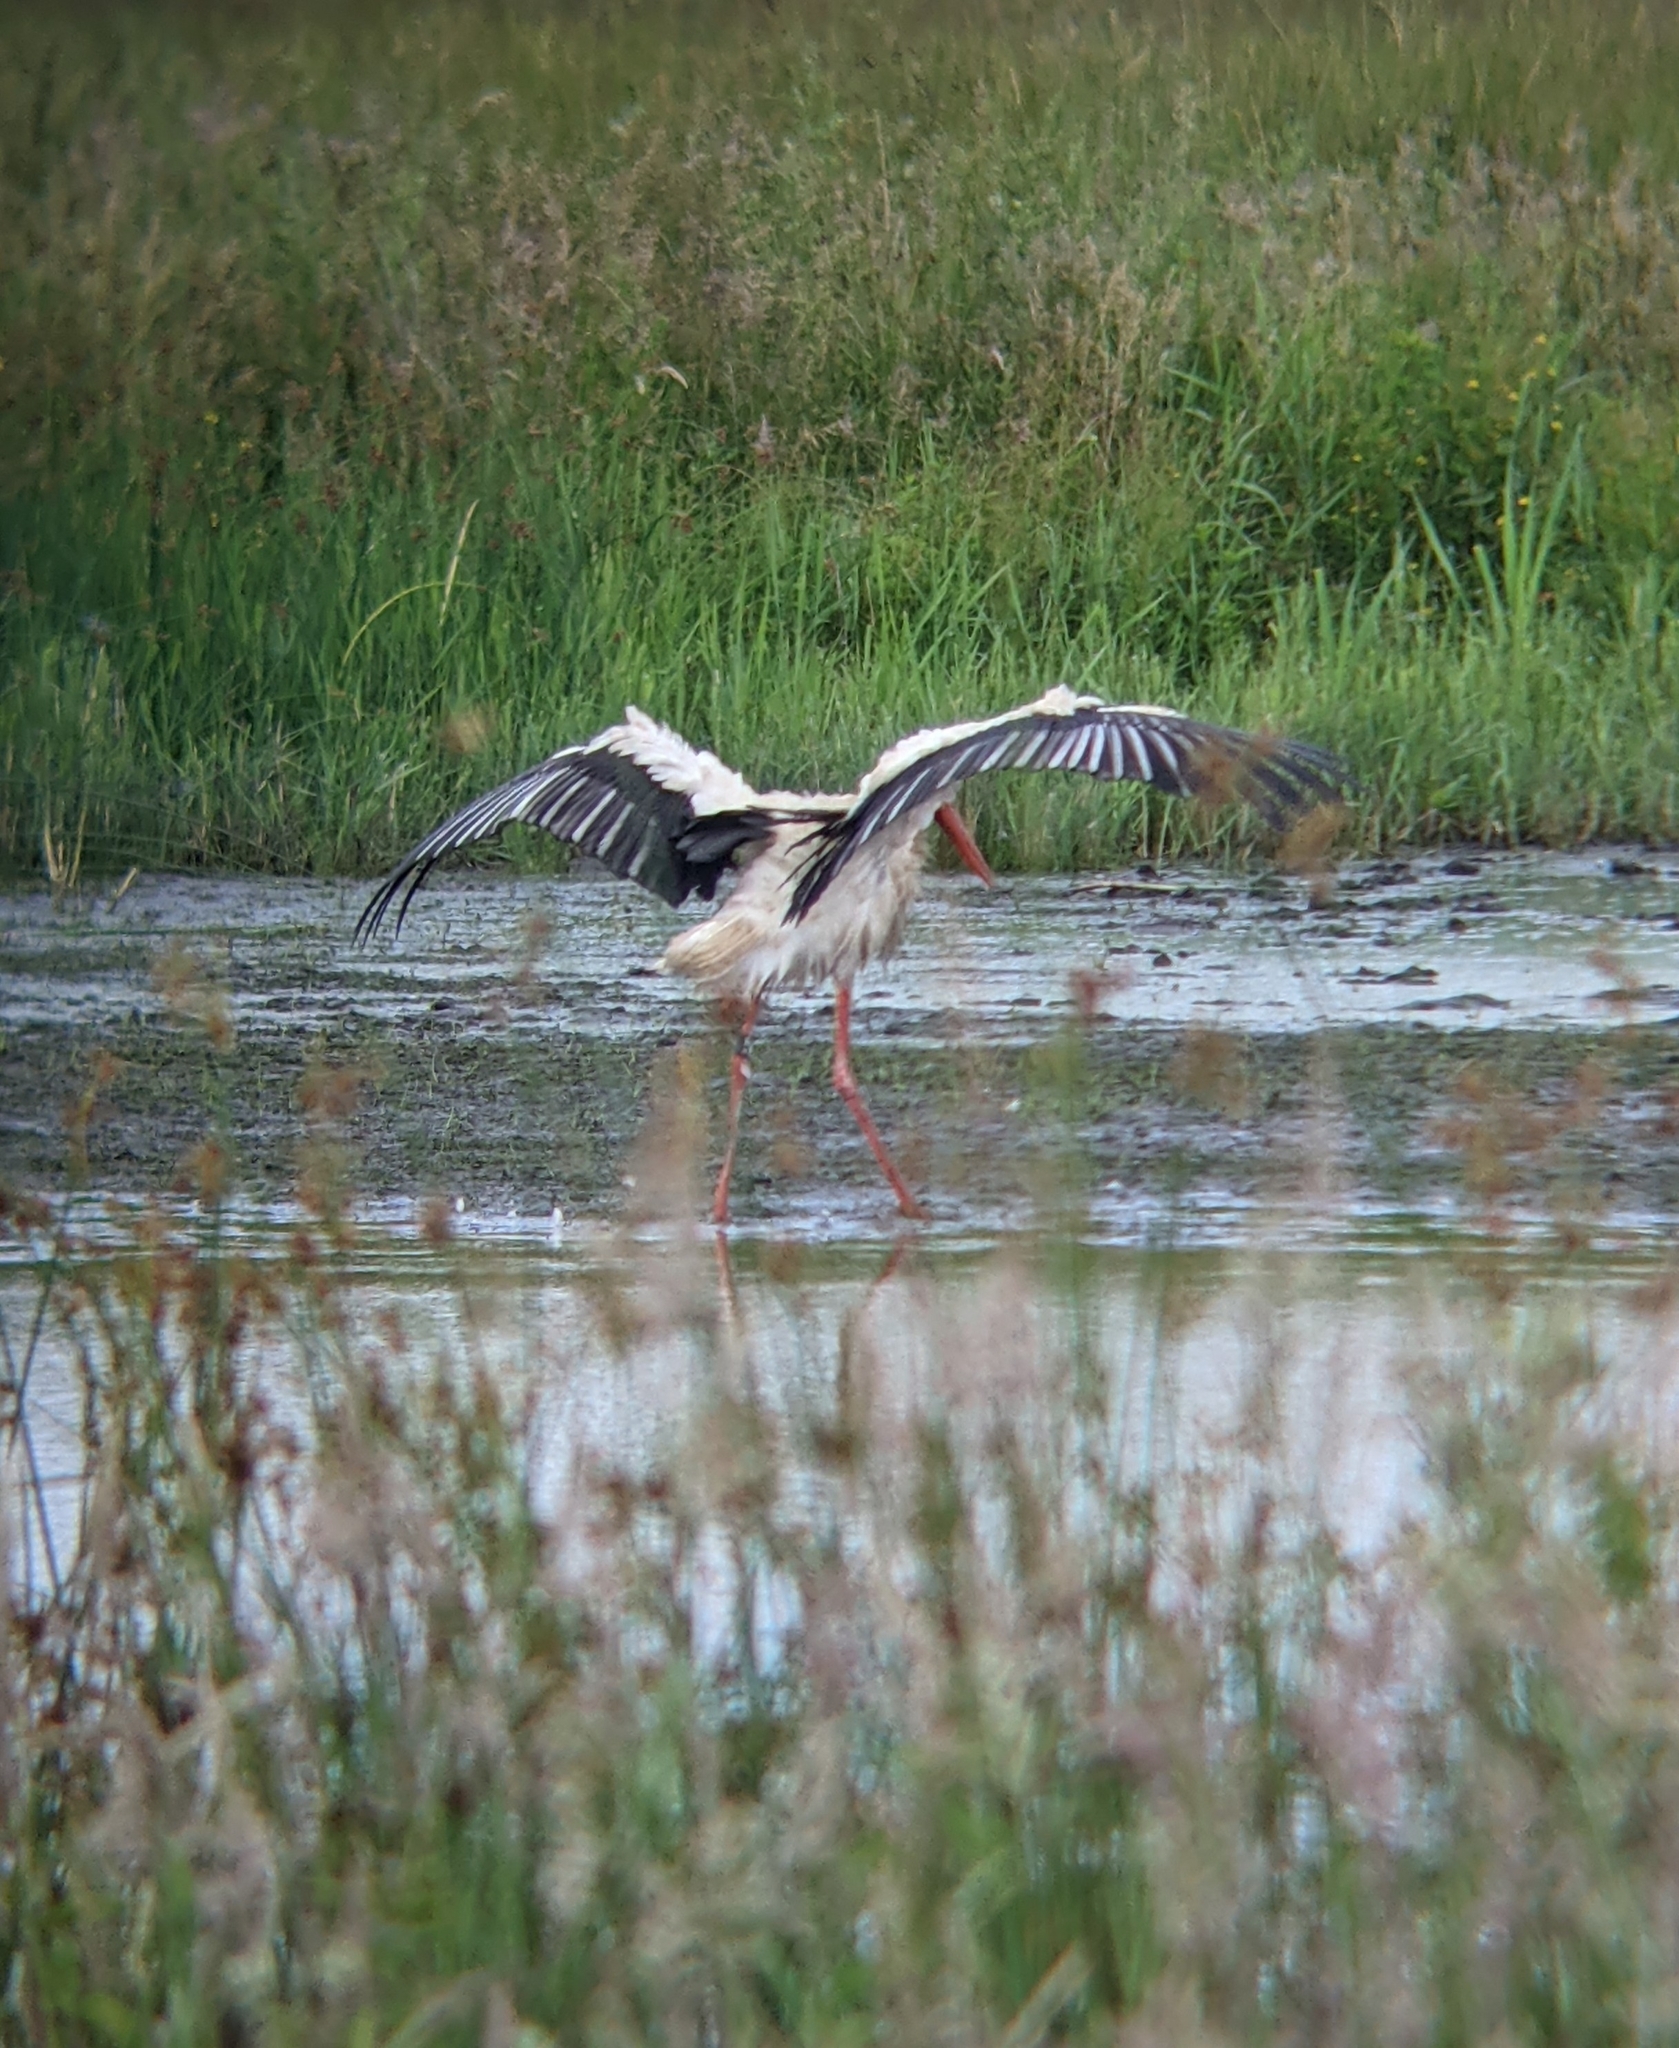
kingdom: Animalia
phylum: Chordata
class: Aves
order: Ciconiiformes
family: Ciconiidae
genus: Ciconia
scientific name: Ciconia ciconia
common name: White stork
